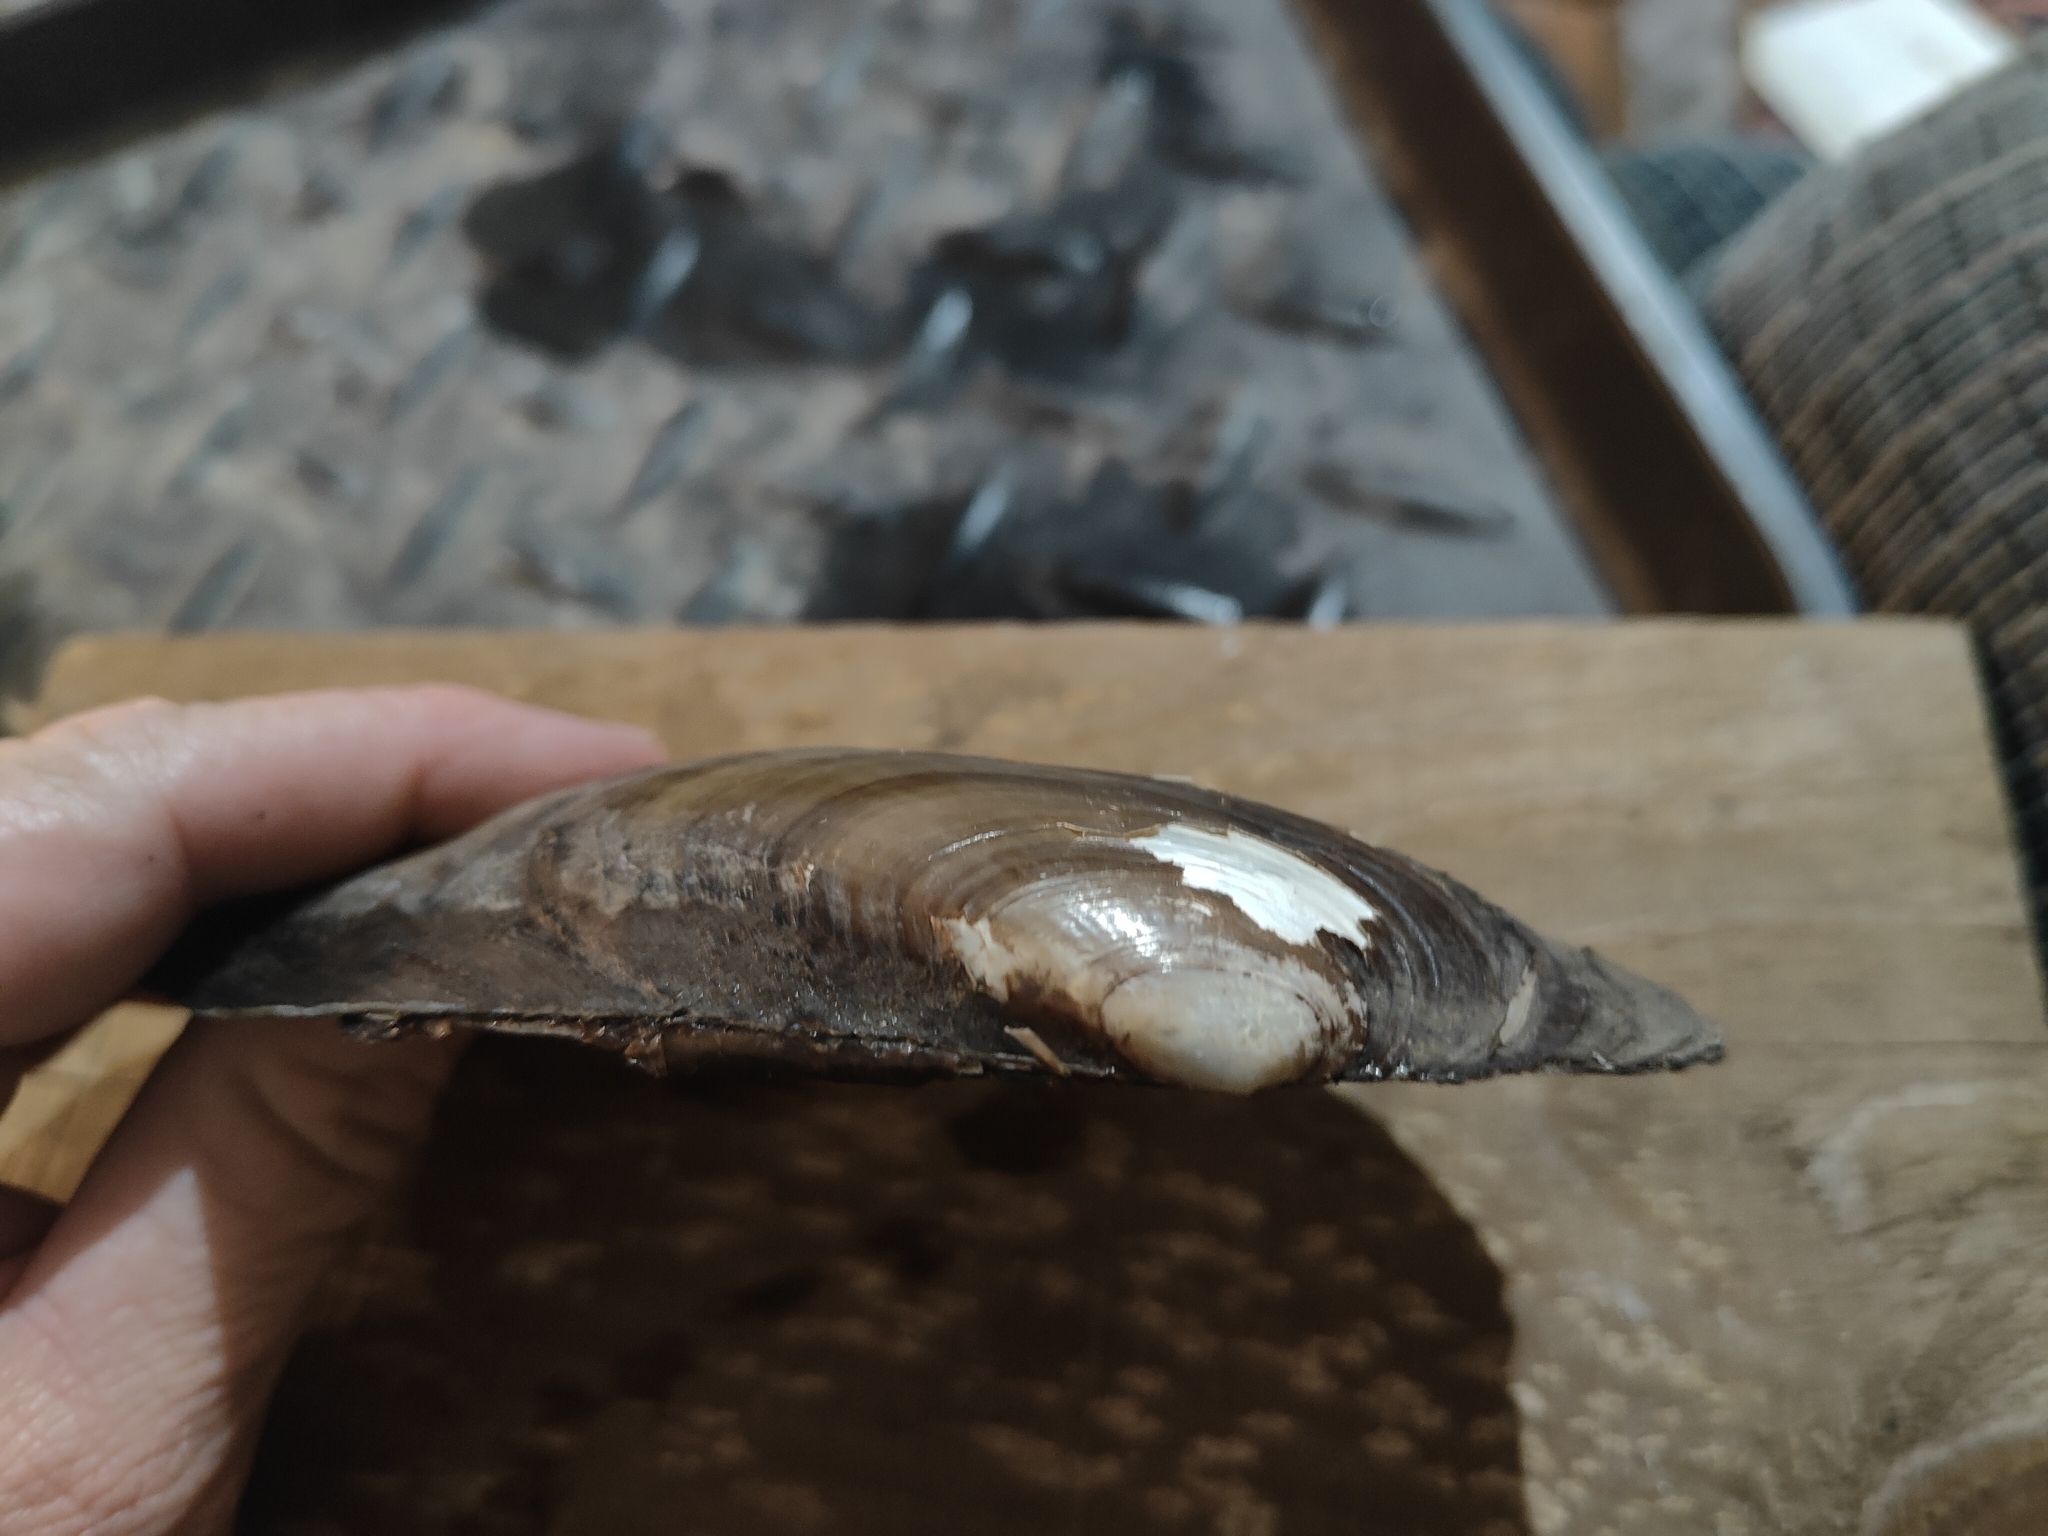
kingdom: Animalia
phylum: Mollusca
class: Bivalvia
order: Unionida
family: Unionidae
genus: Potamilus
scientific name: Potamilus fragilis
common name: Fragile papershell
